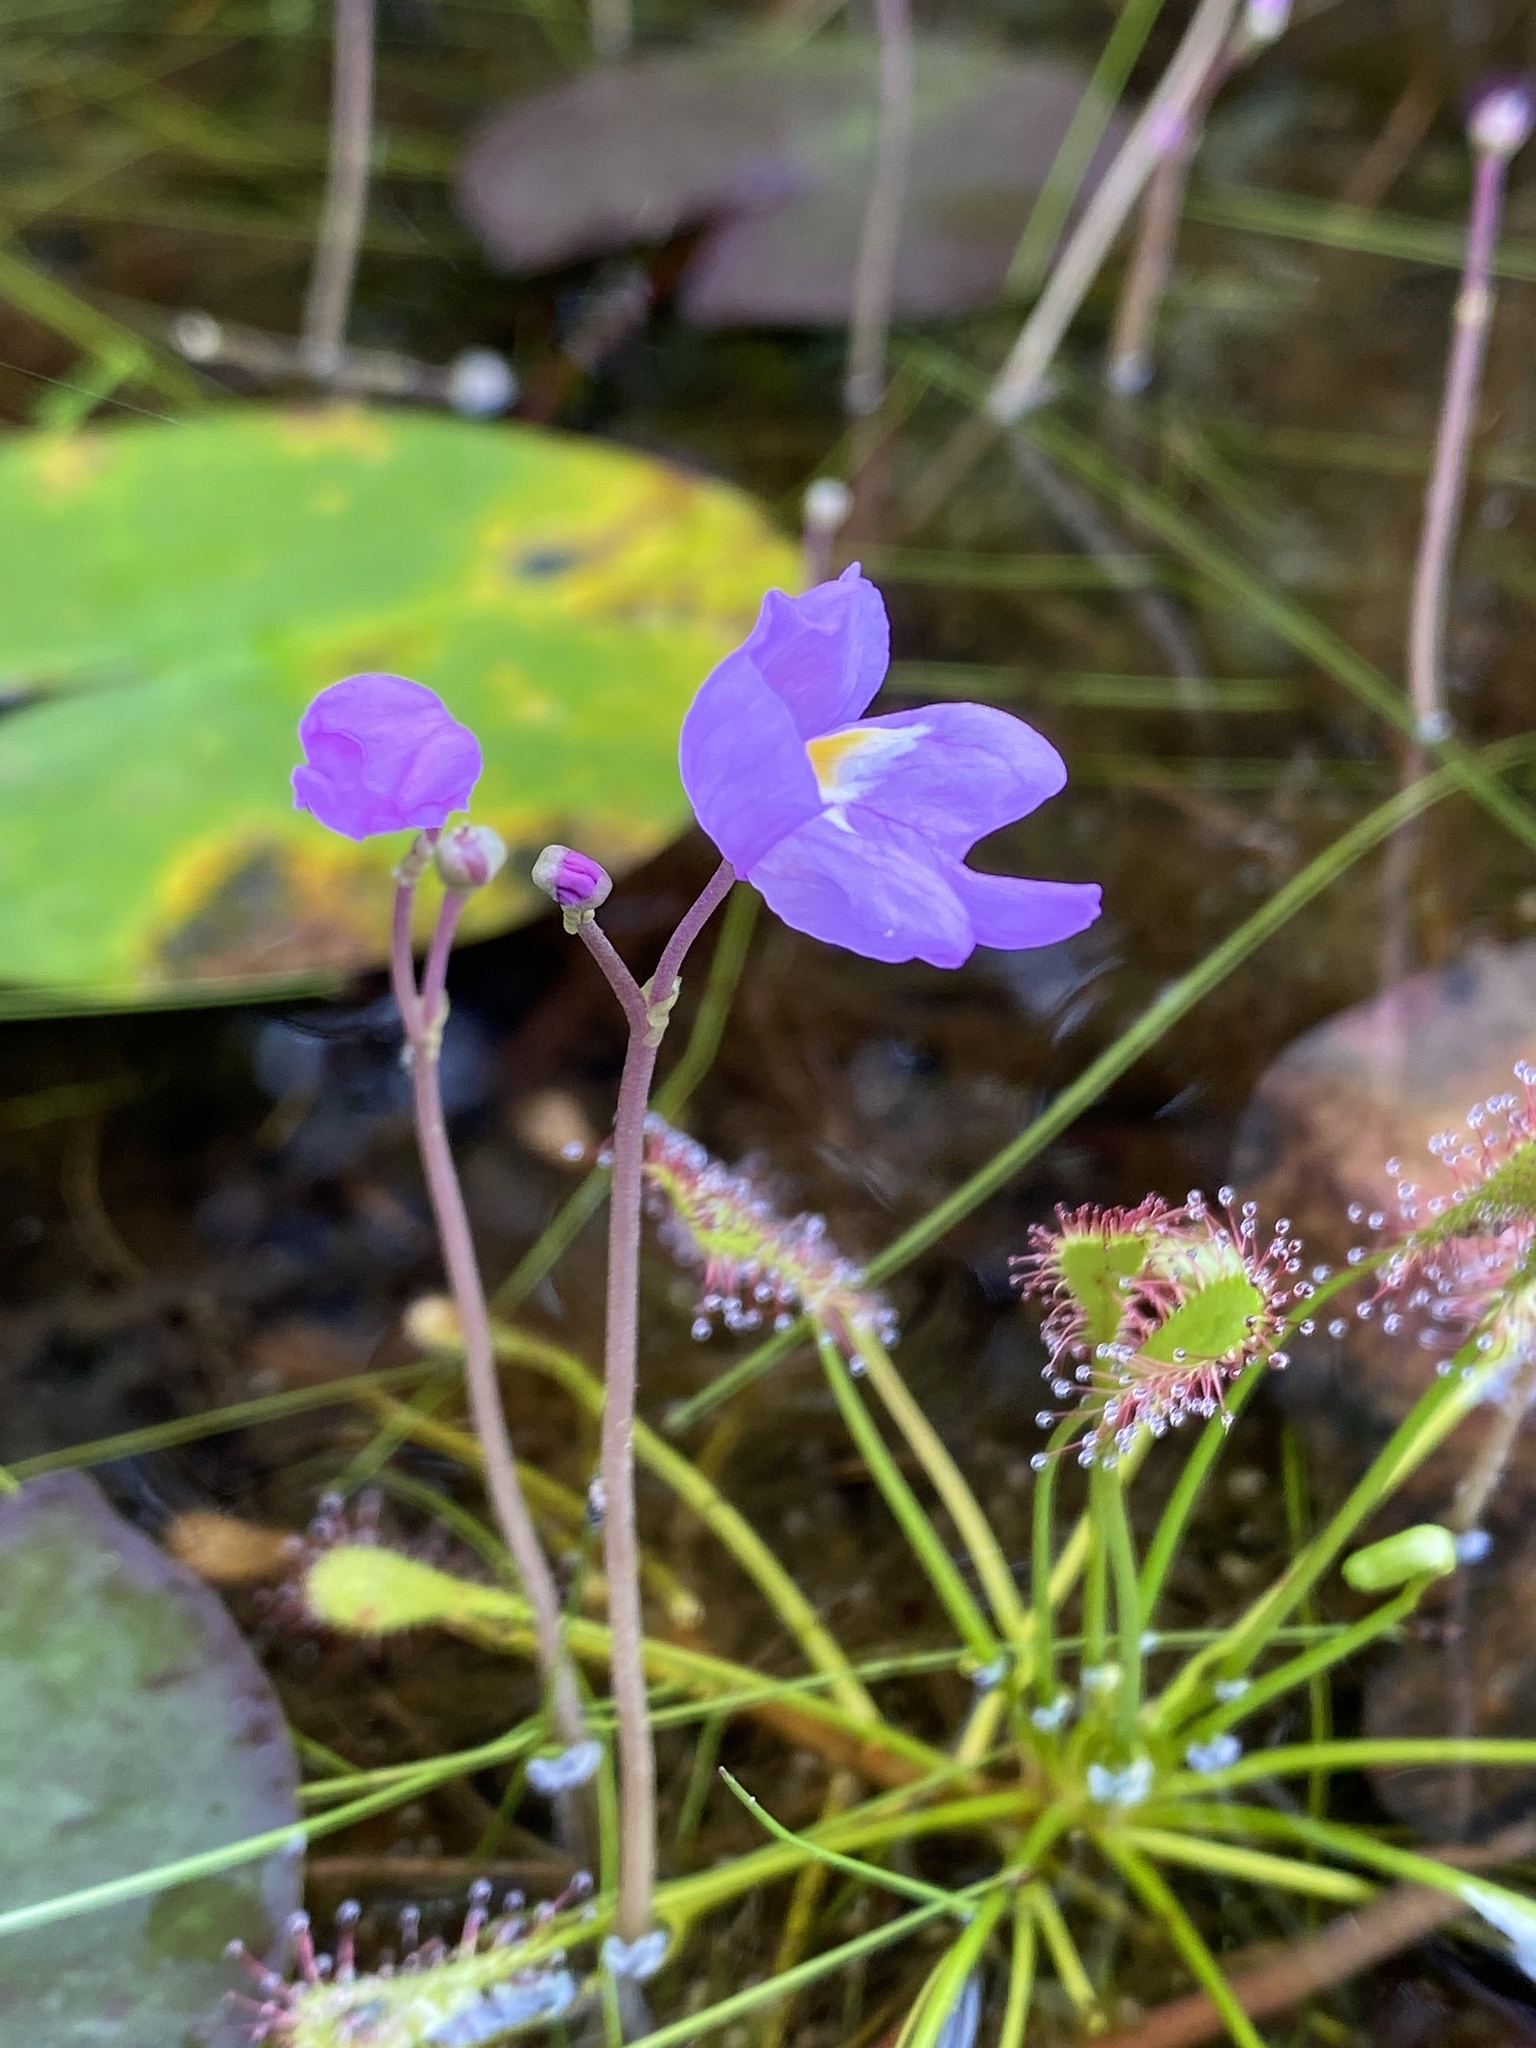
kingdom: Plantae
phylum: Tracheophyta
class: Magnoliopsida
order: Lamiales
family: Lentibulariaceae
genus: Utricularia
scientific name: Utricularia purpurea
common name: Eastern purple bladderwort
